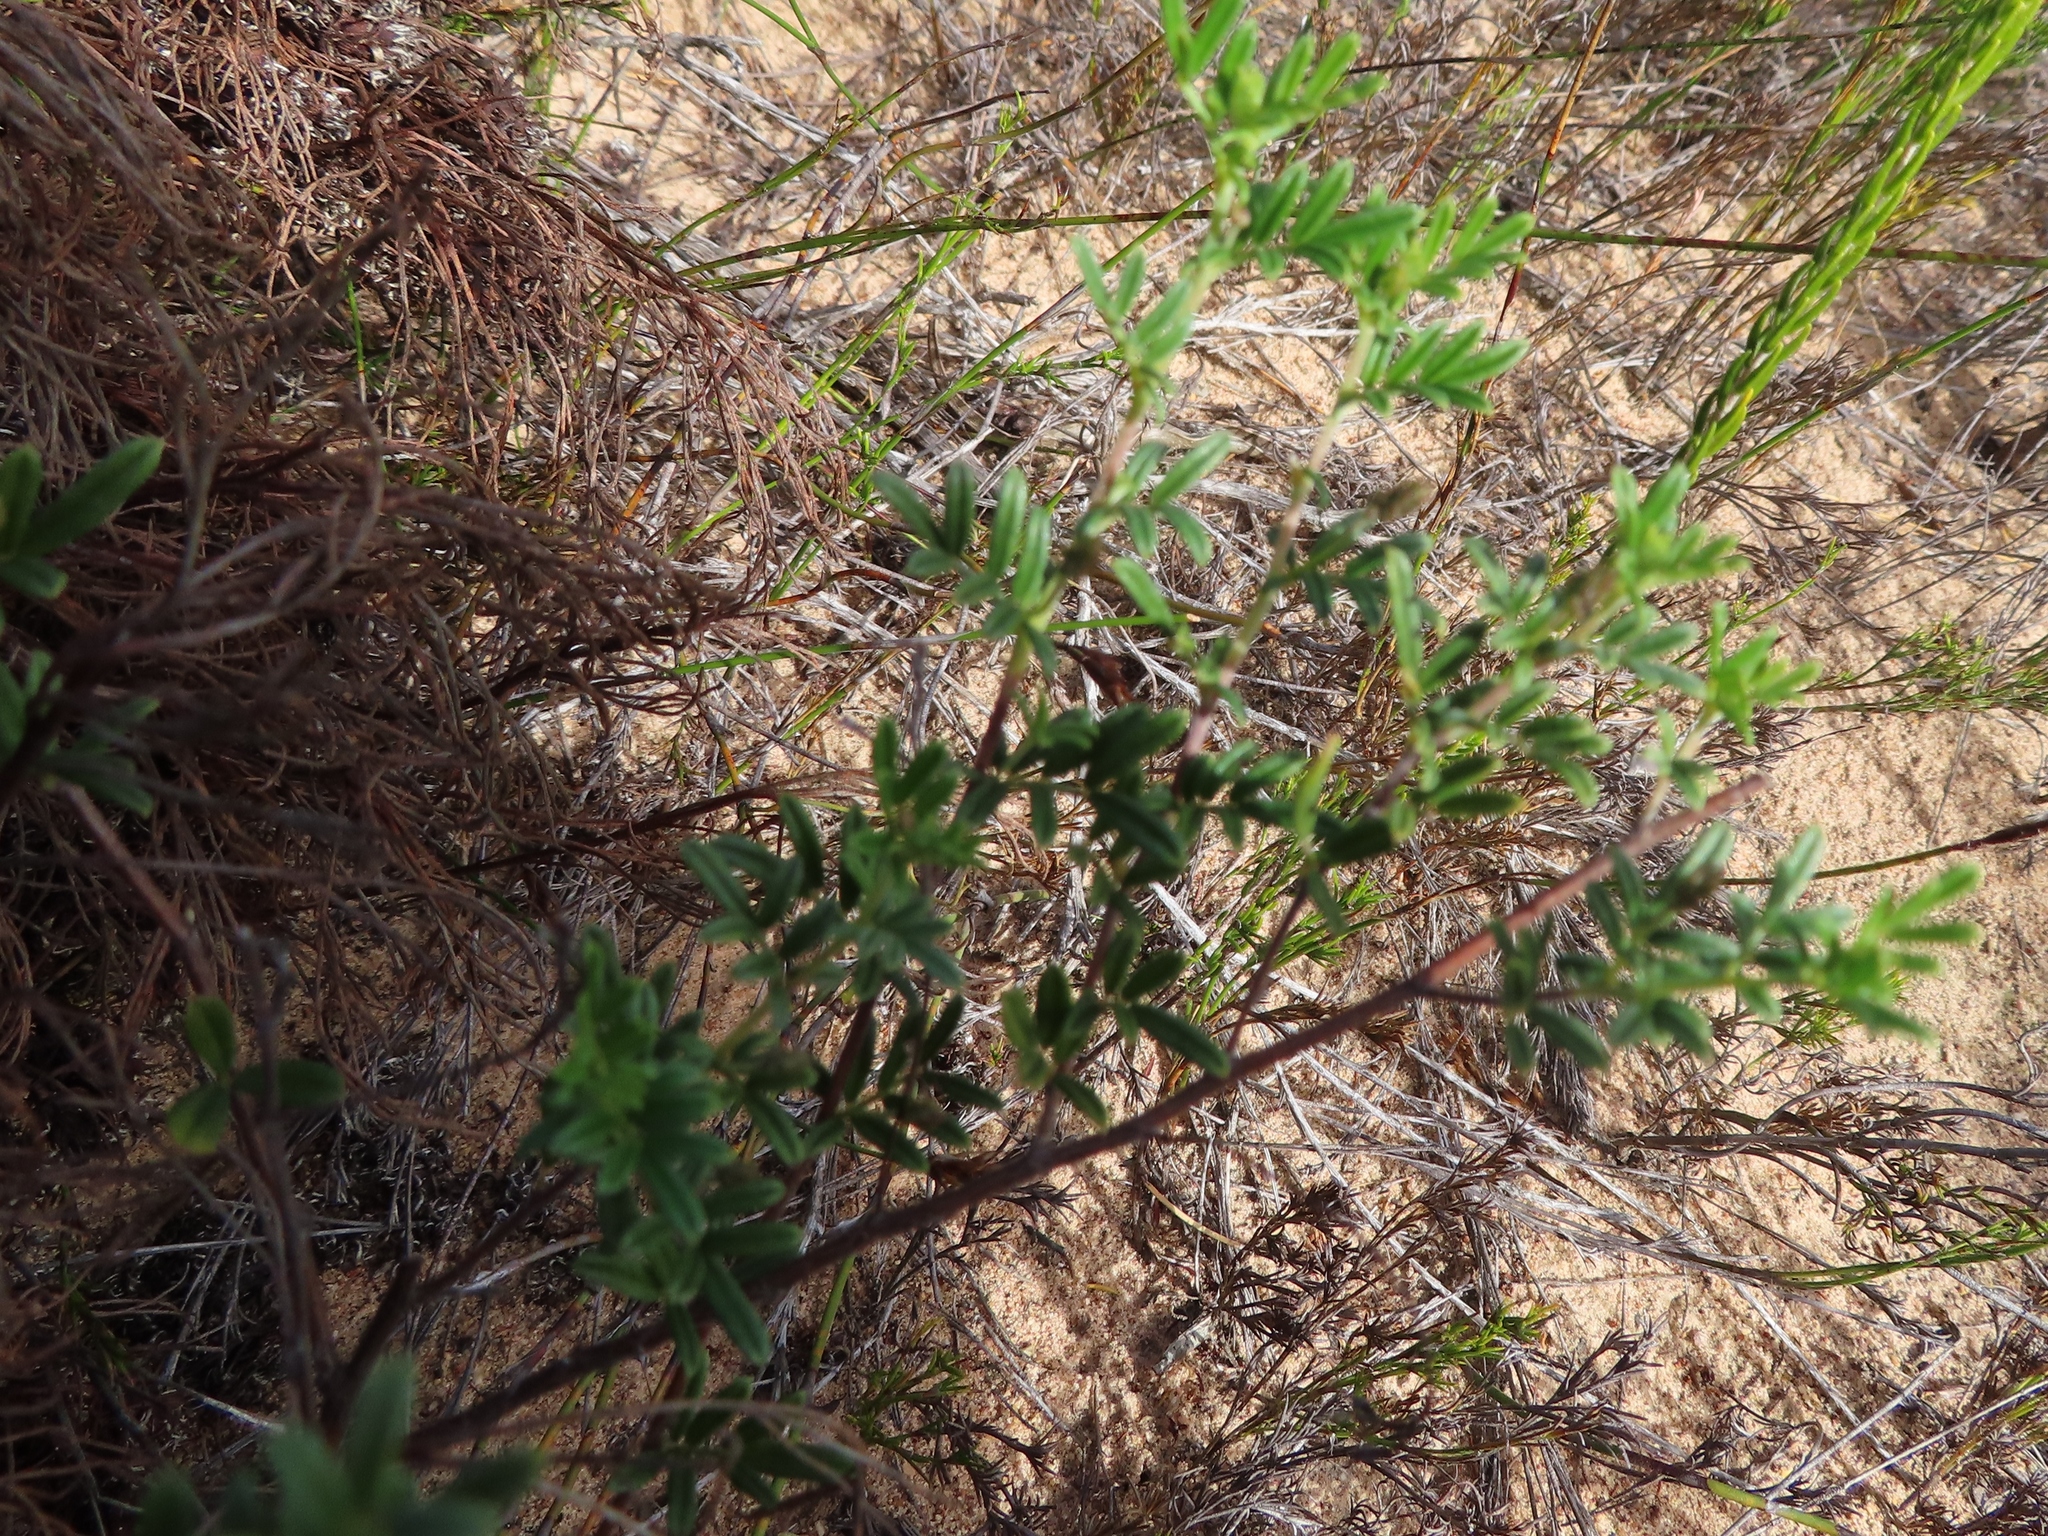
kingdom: Plantae
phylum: Tracheophyta
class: Magnoliopsida
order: Fabales
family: Fabaceae
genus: Indigofera
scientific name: Indigofera angustifolia
